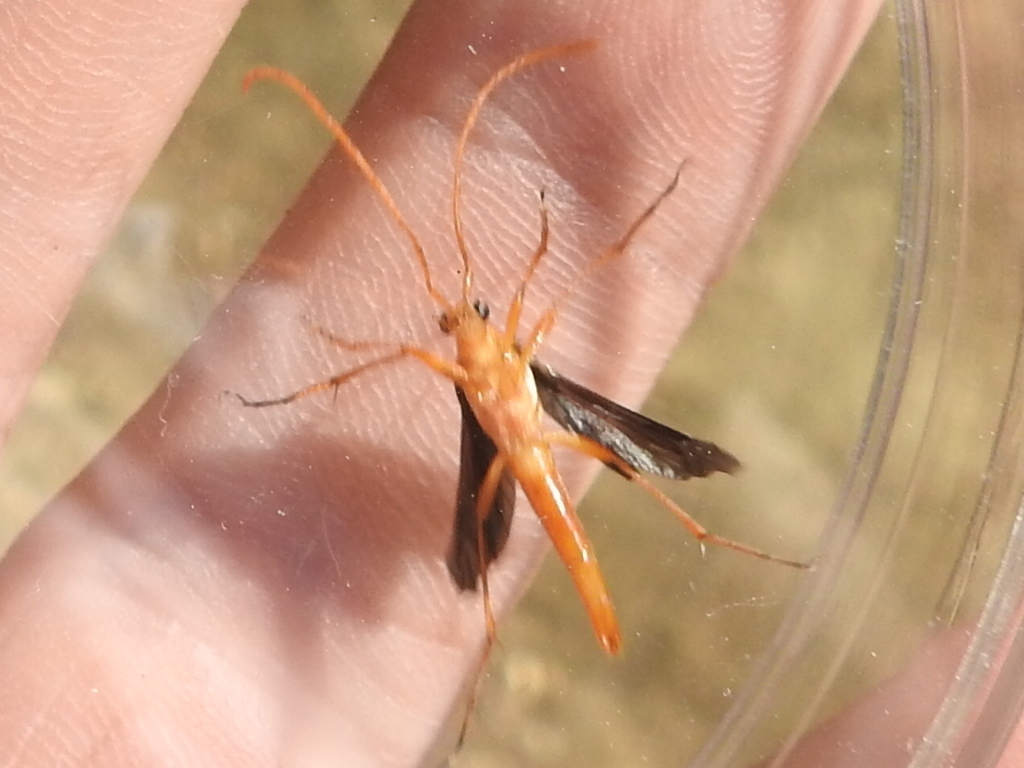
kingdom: Animalia
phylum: Arthropoda
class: Insecta
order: Coleoptera
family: Cerambycidae
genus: Strangalia
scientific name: Strangalia bicolor
